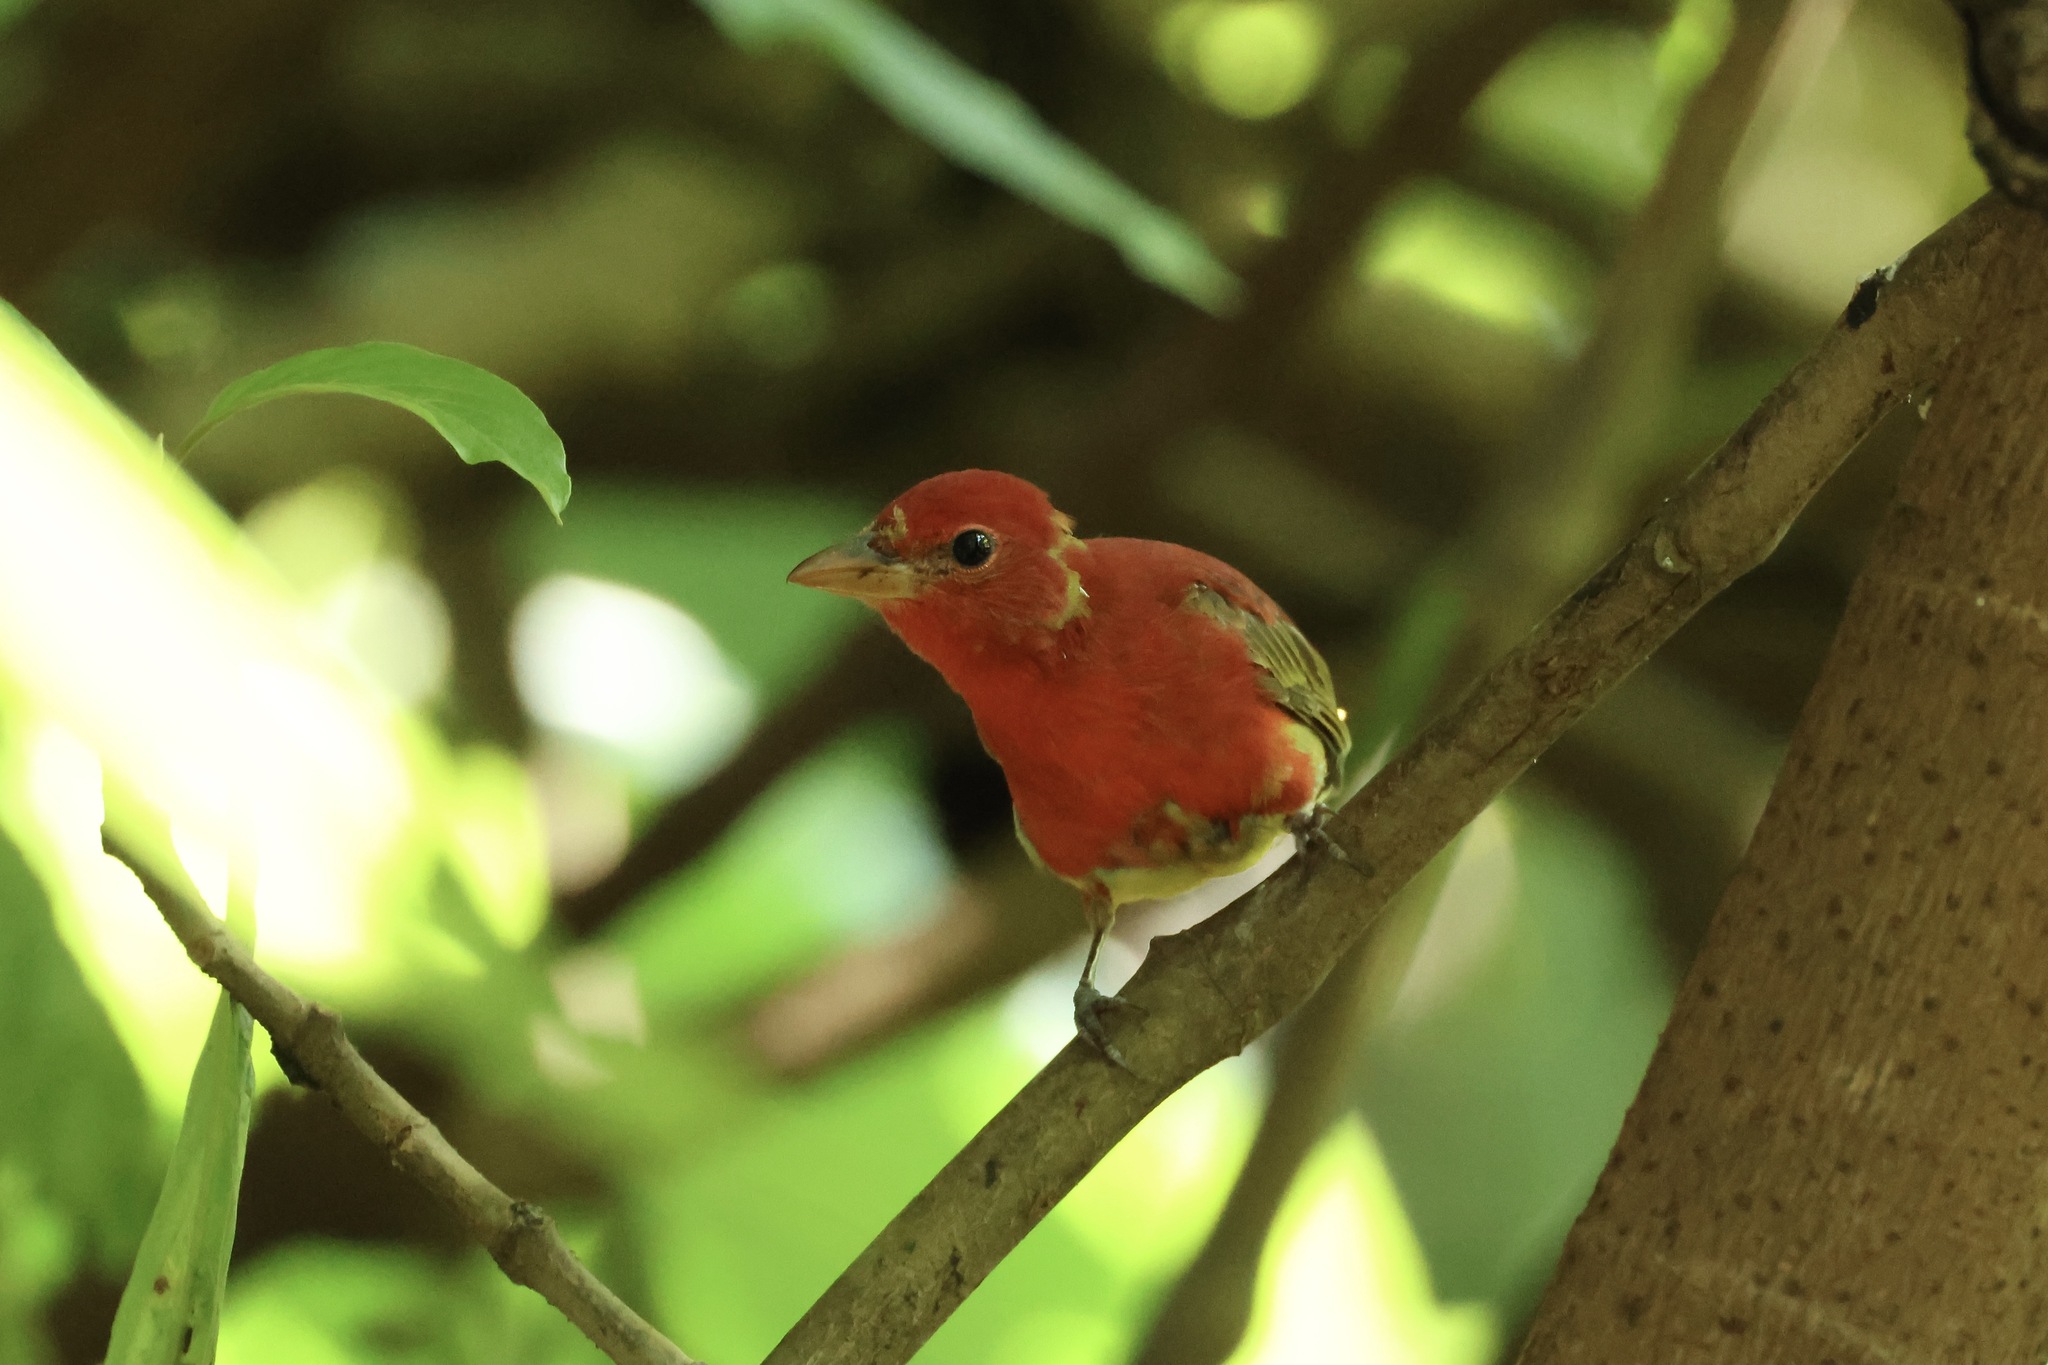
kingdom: Animalia
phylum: Chordata
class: Aves
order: Passeriformes
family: Cardinalidae
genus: Piranga
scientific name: Piranga rubra
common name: Summer tanager
